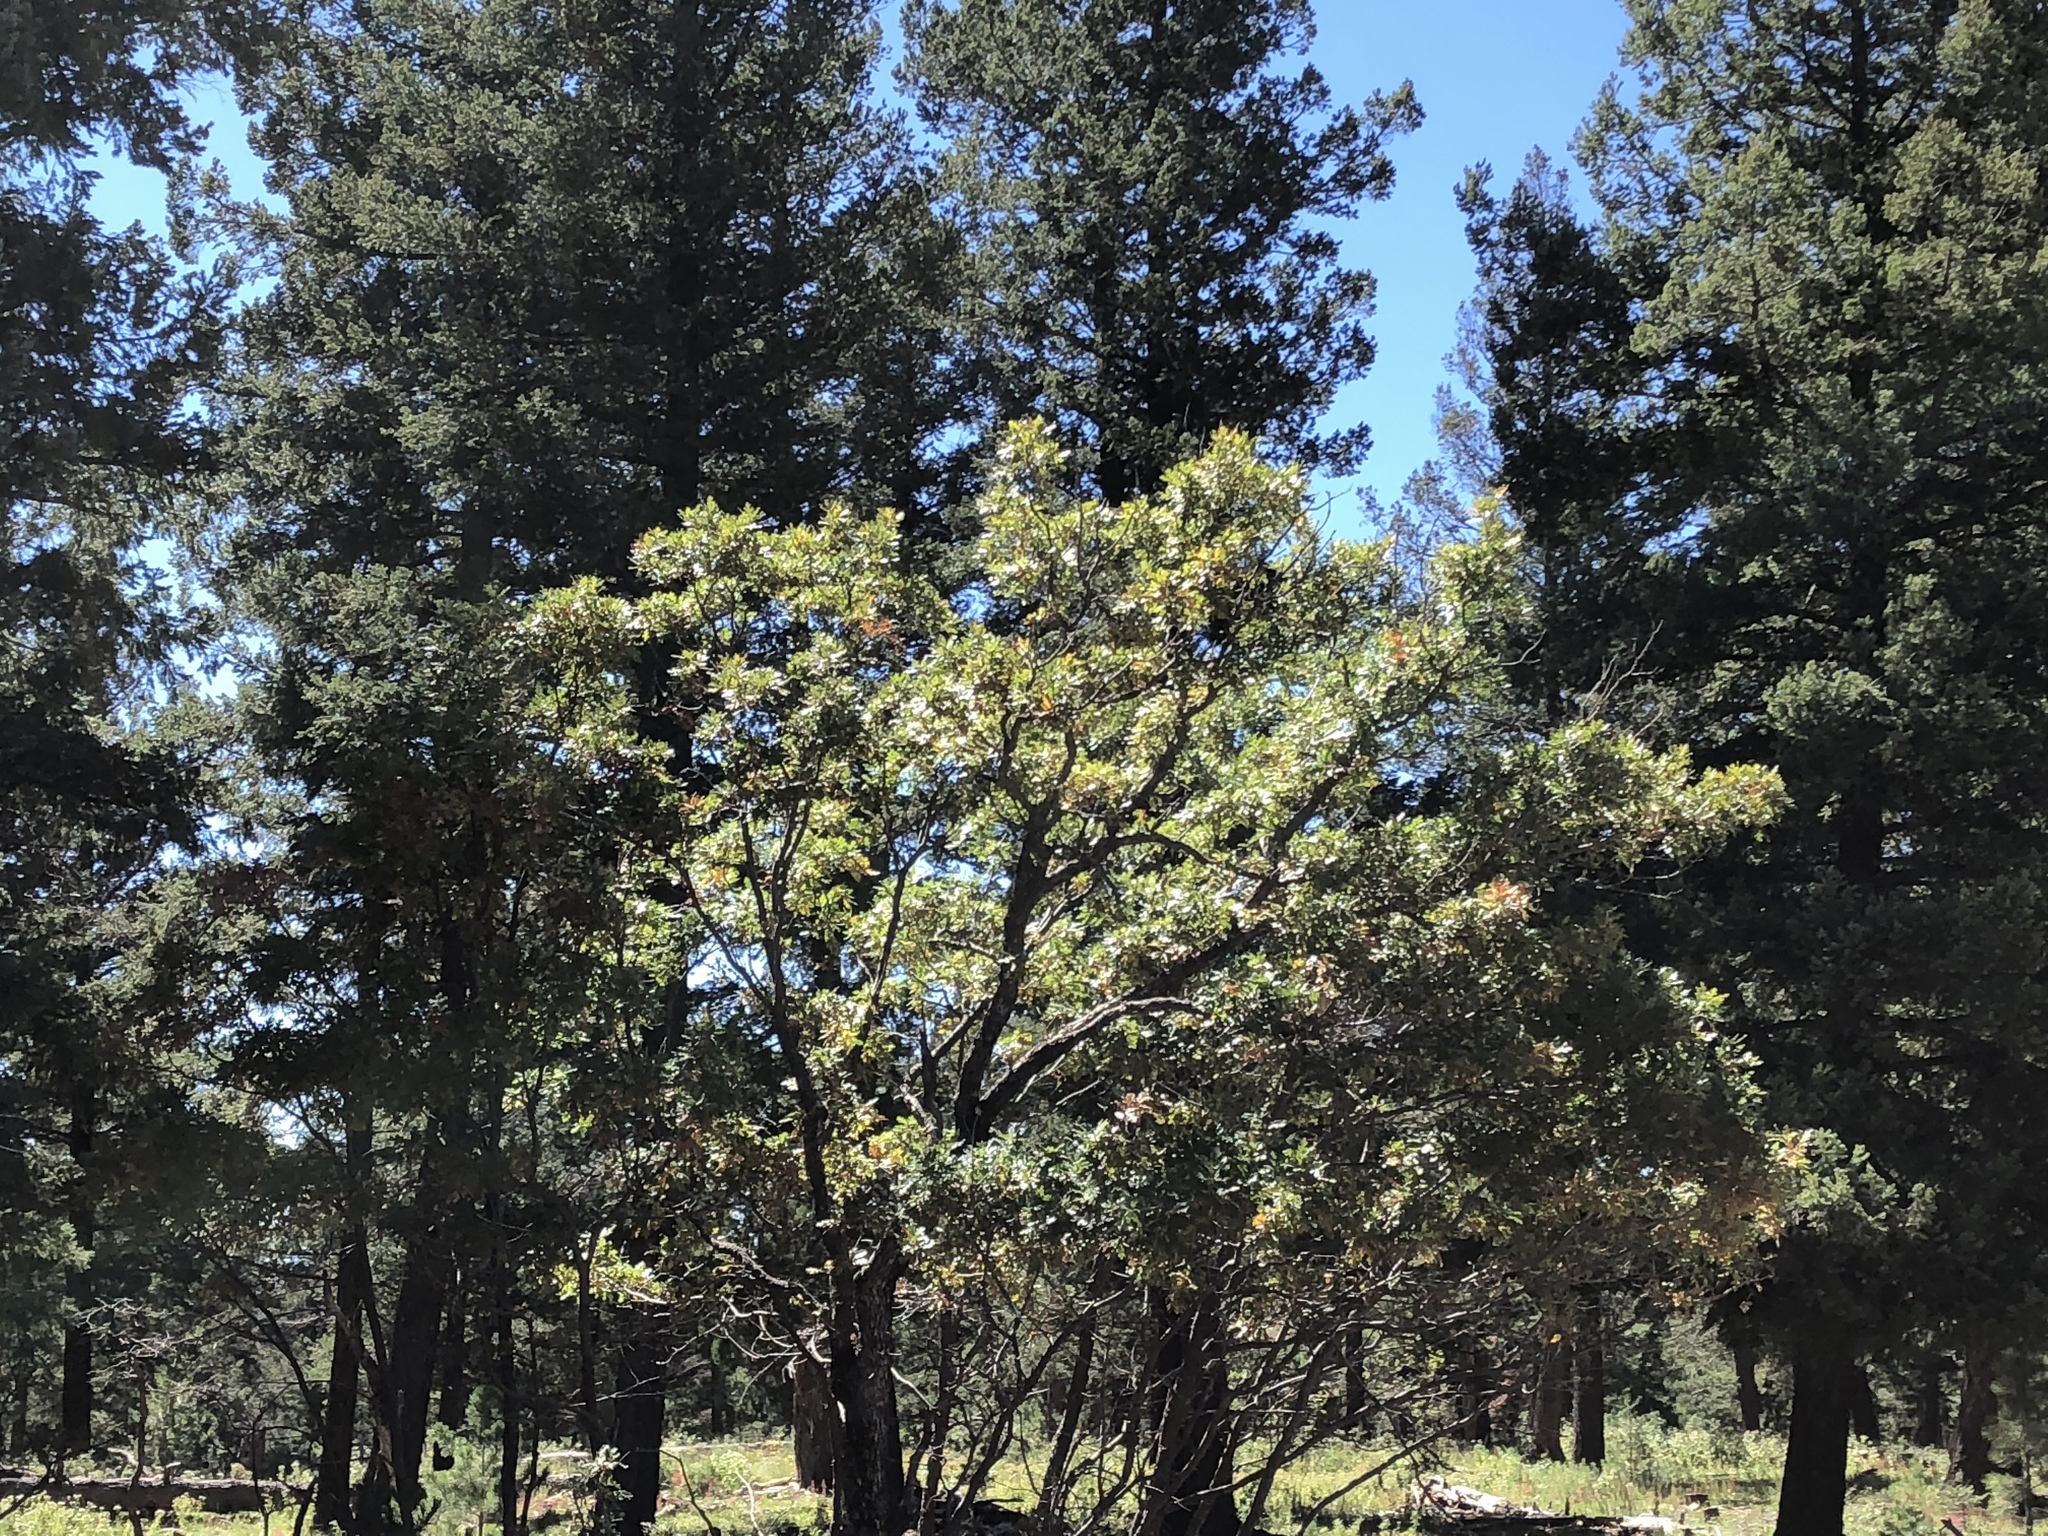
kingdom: Plantae
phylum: Tracheophyta
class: Magnoliopsida
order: Fagales
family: Fagaceae
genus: Quercus
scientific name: Quercus gambelii
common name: Gambel oak
